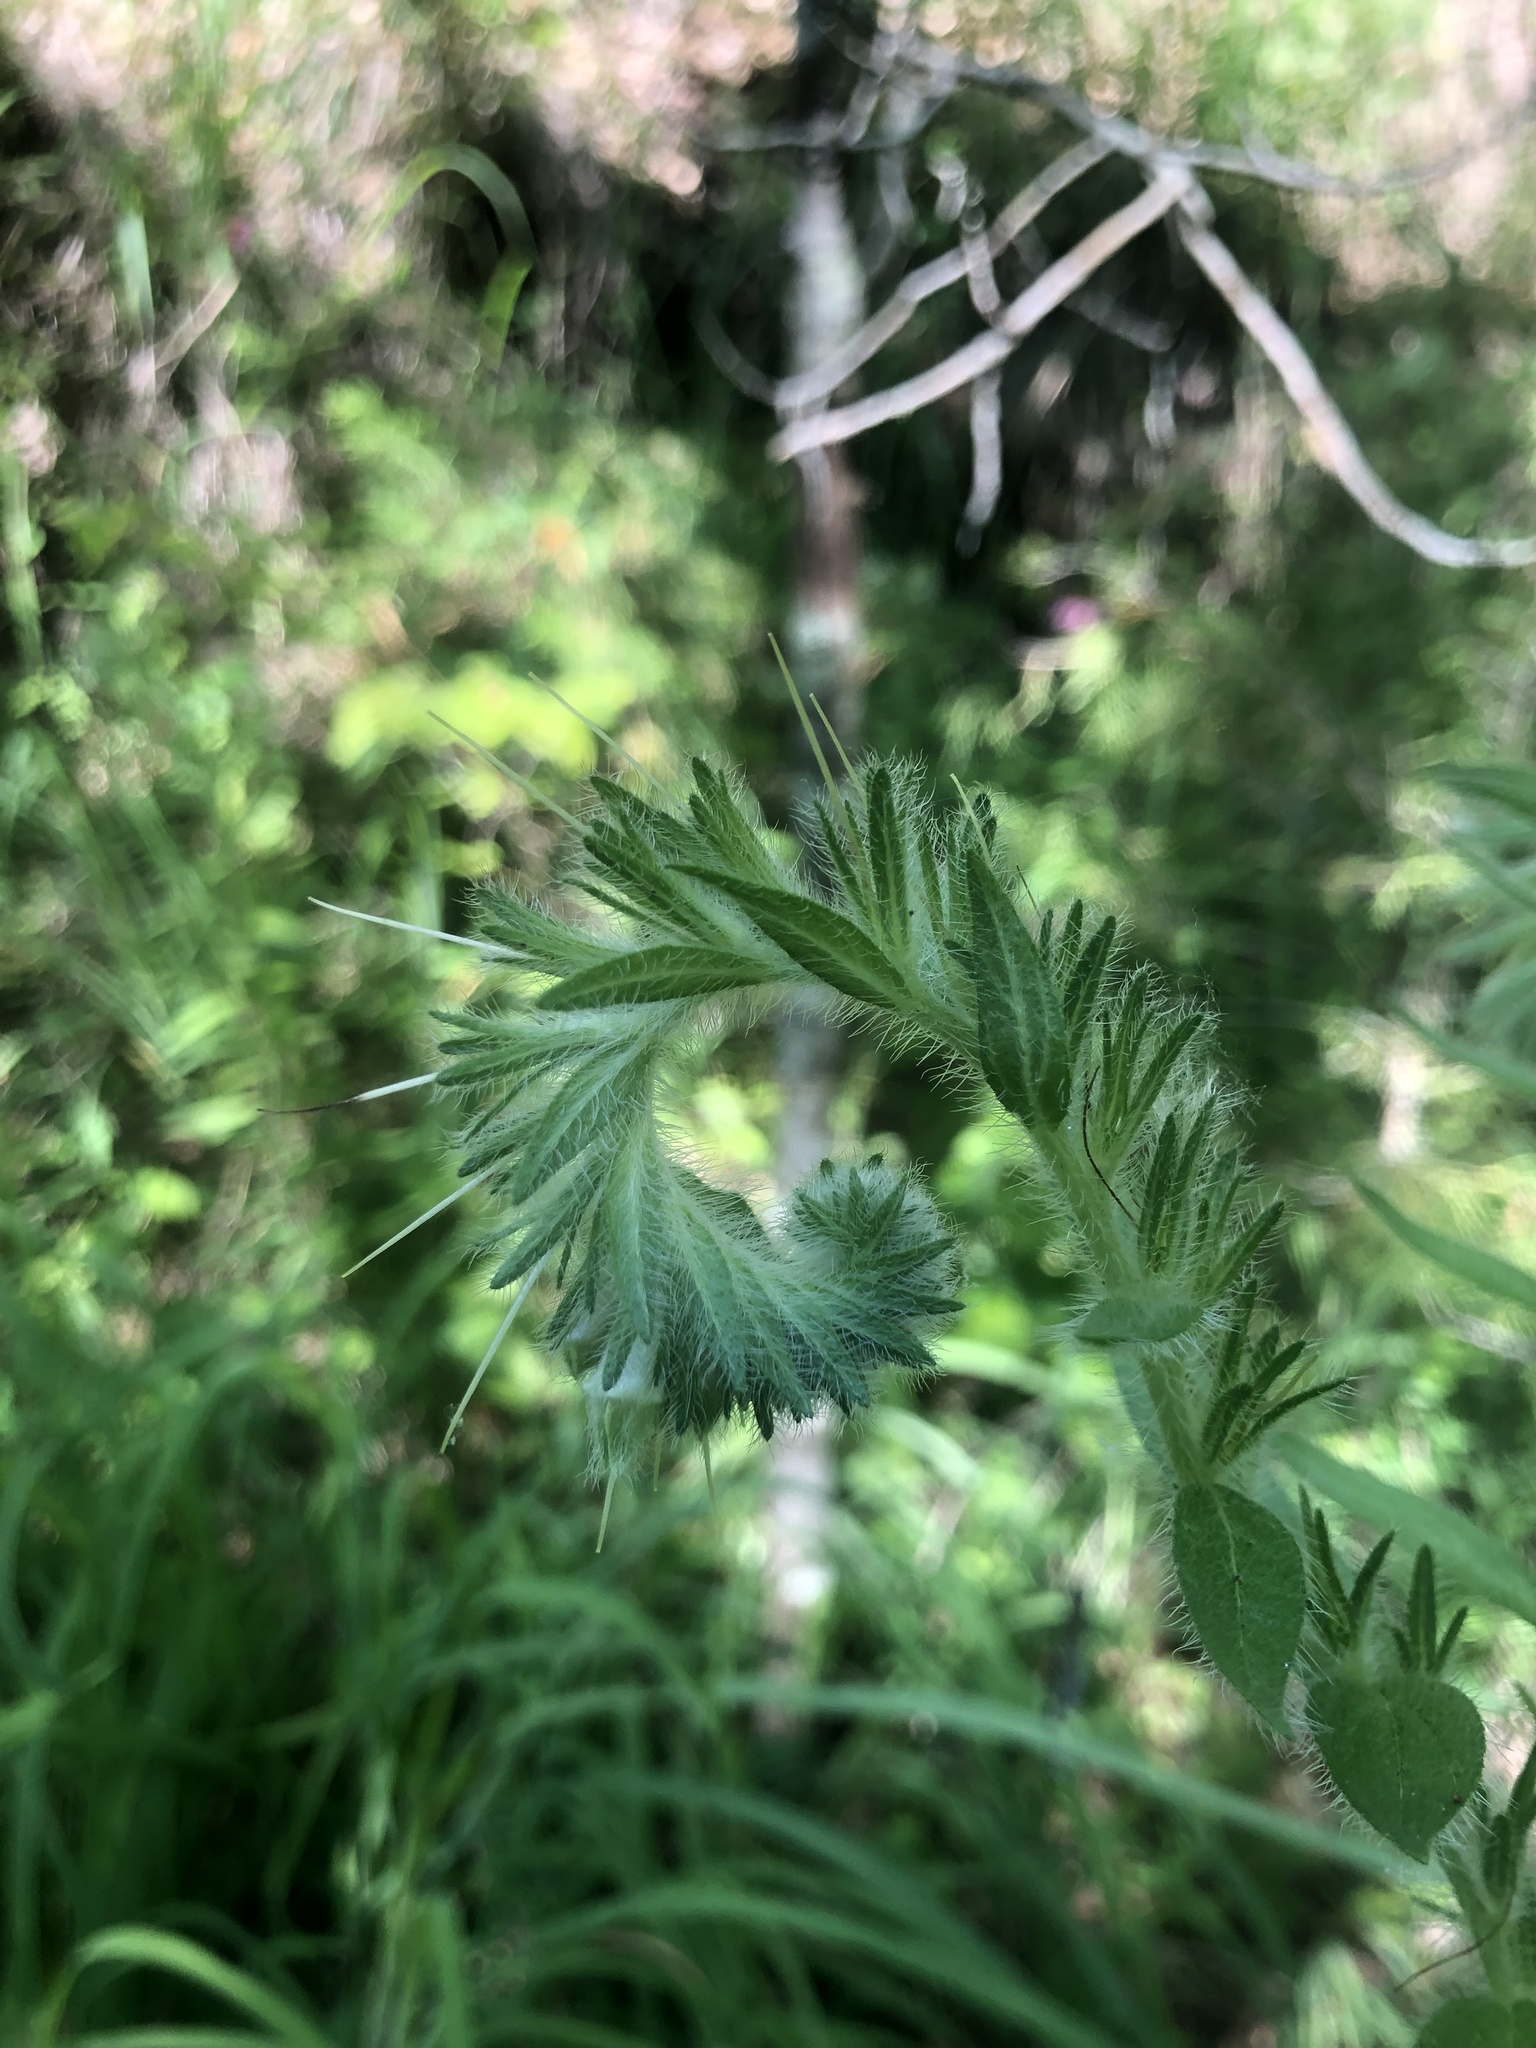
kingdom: Plantae
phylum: Tracheophyta
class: Magnoliopsida
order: Boraginales
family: Boraginaceae
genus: Lithospermum
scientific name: Lithospermum caroliniense
